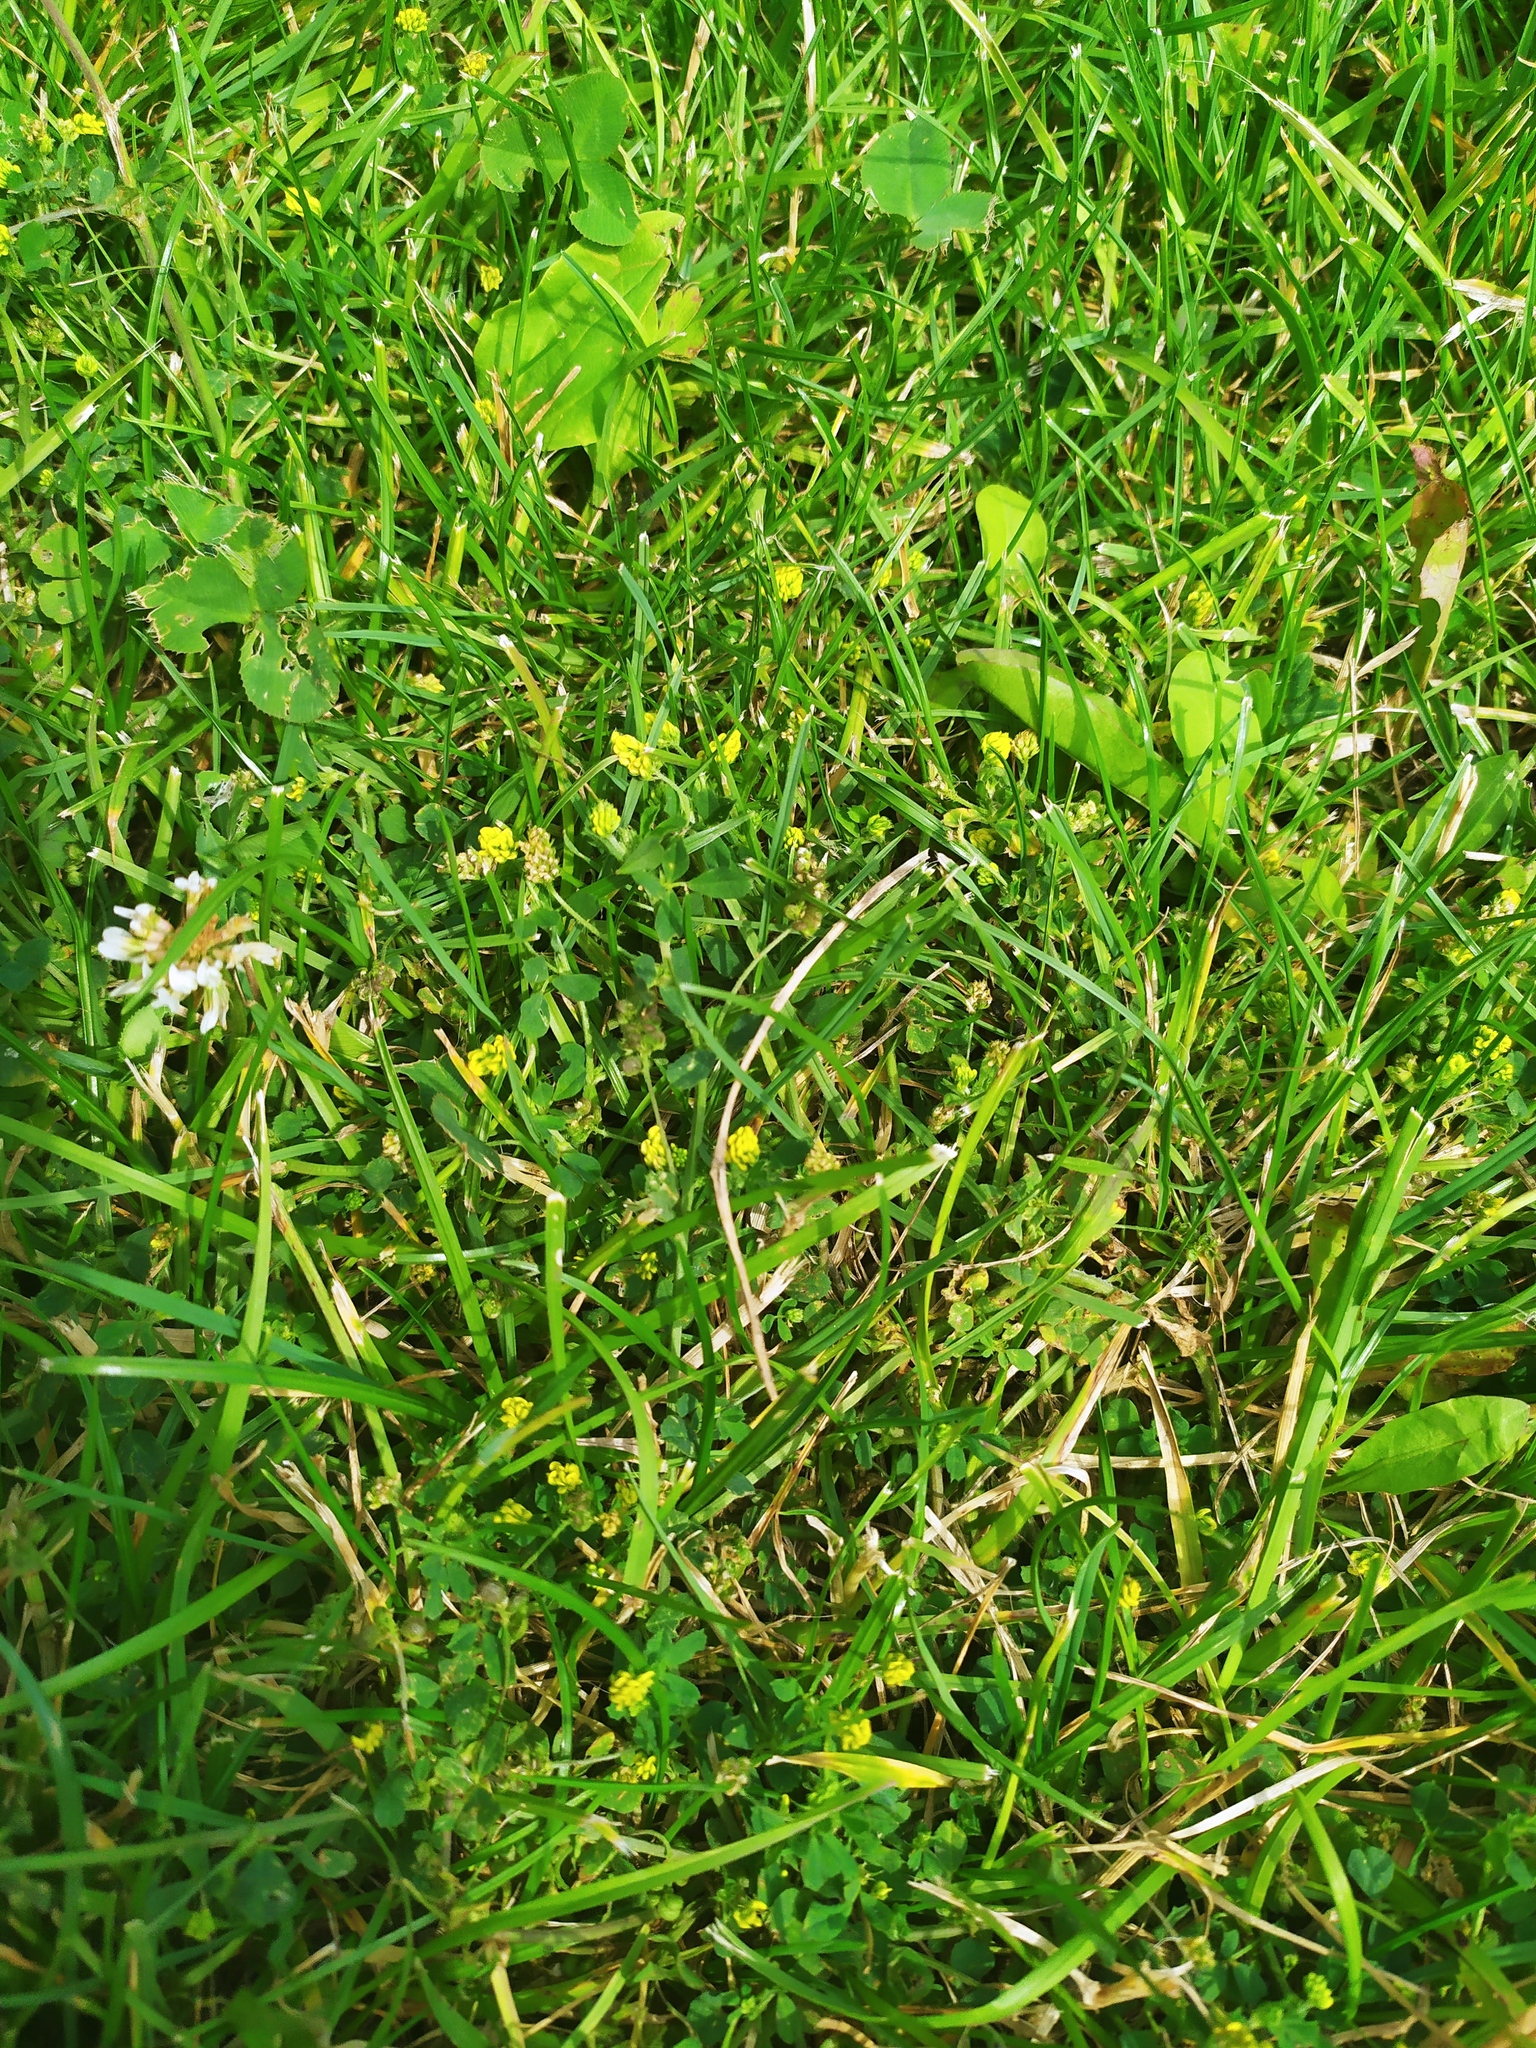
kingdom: Plantae
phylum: Tracheophyta
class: Magnoliopsida
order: Fabales
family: Fabaceae
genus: Medicago
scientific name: Medicago lupulina
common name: Black medick
